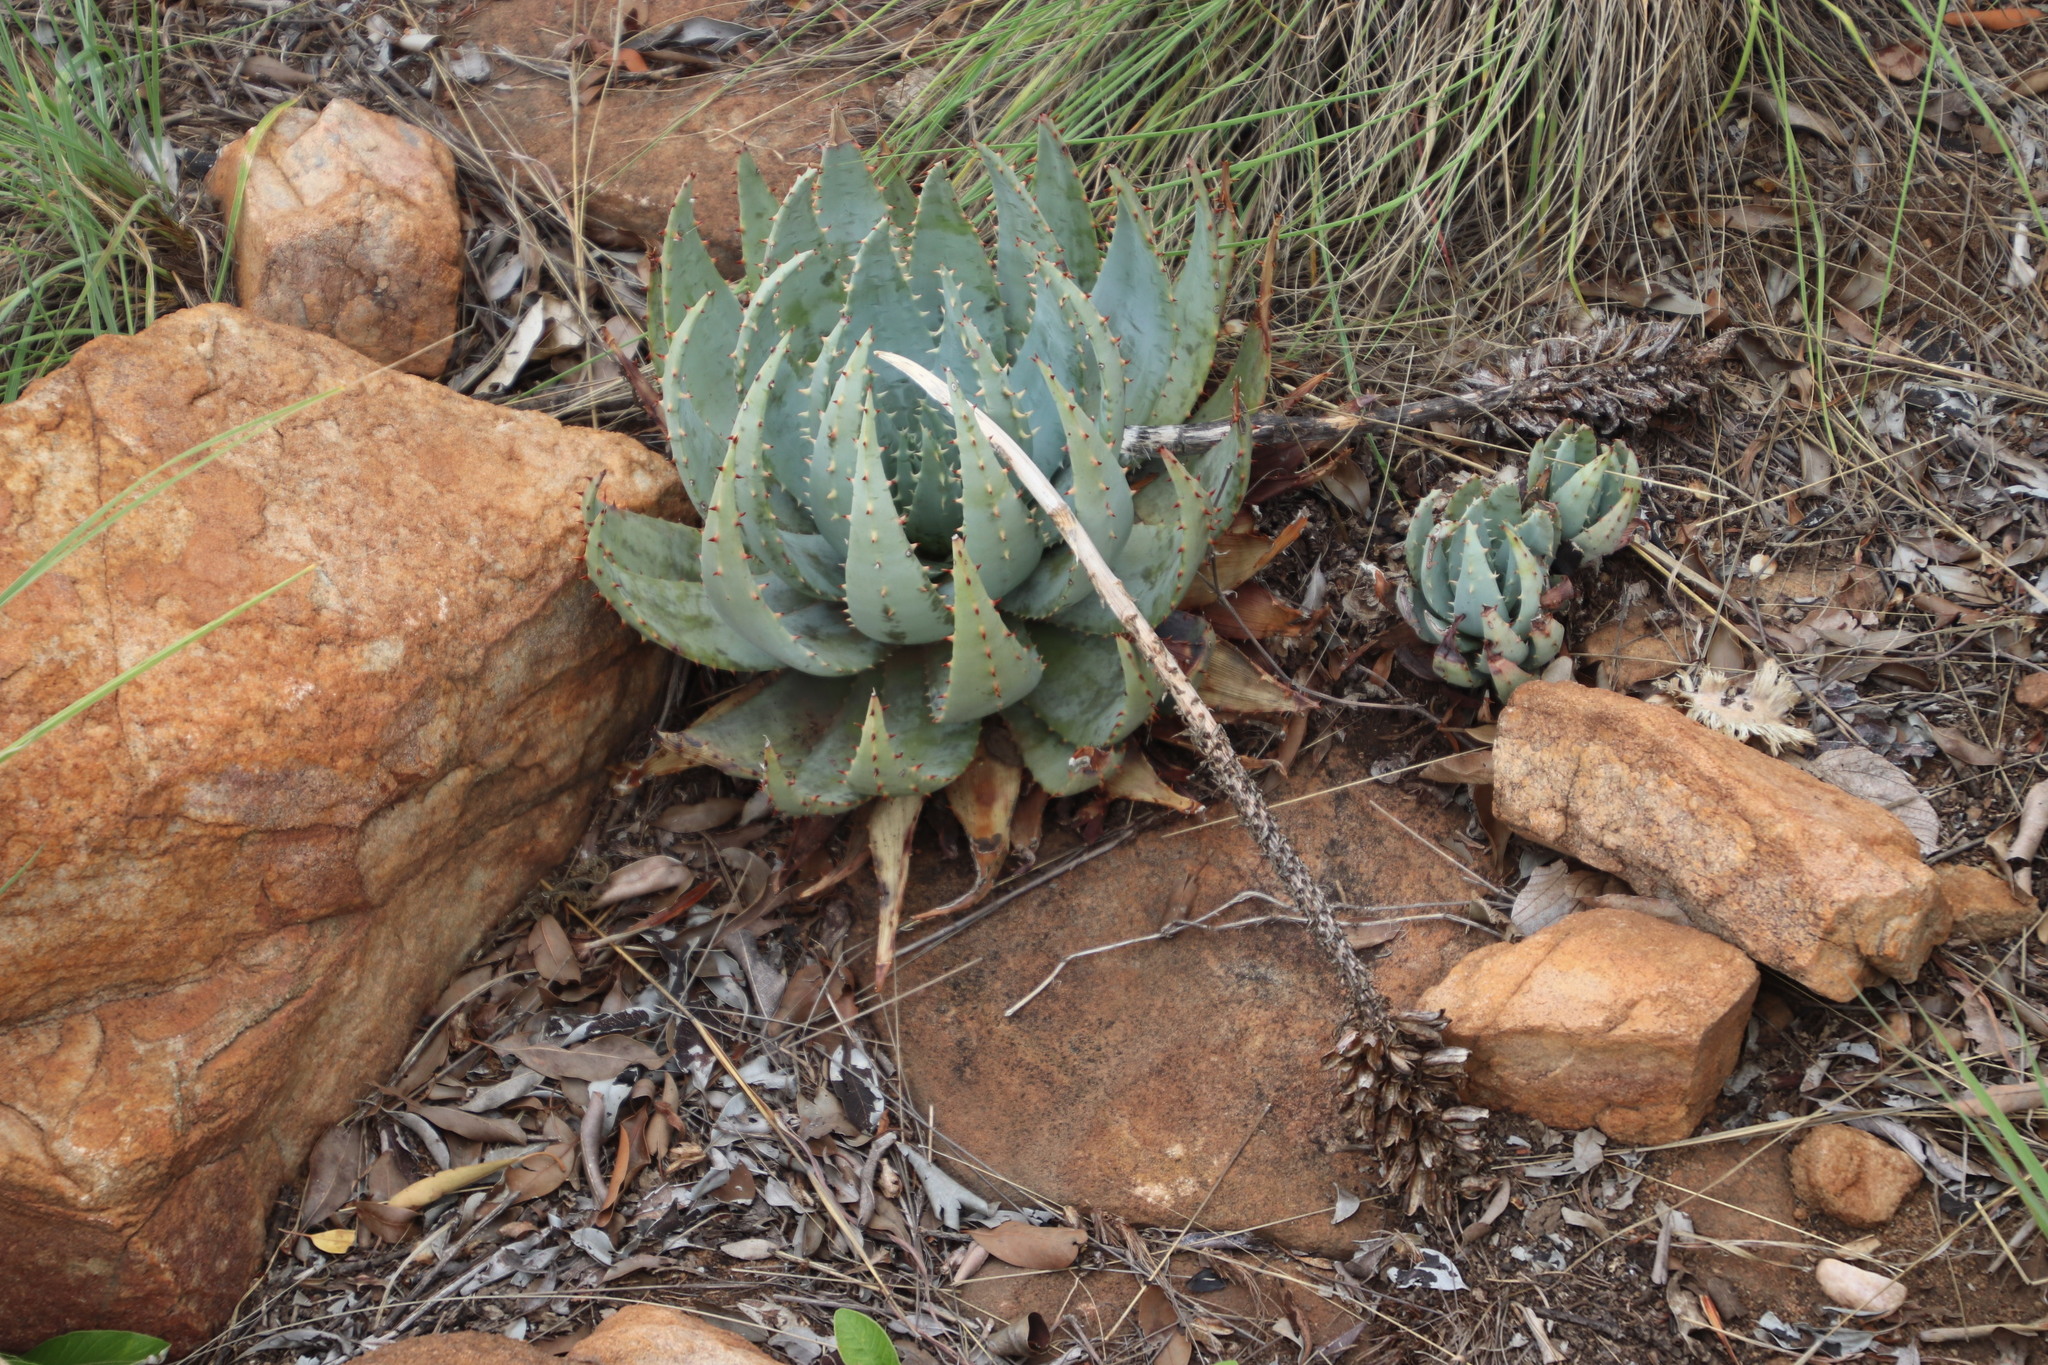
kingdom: Plantae
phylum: Tracheophyta
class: Liliopsida
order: Asparagales
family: Asphodelaceae
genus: Aloe
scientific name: Aloe peglerae
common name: Red-hot poker
